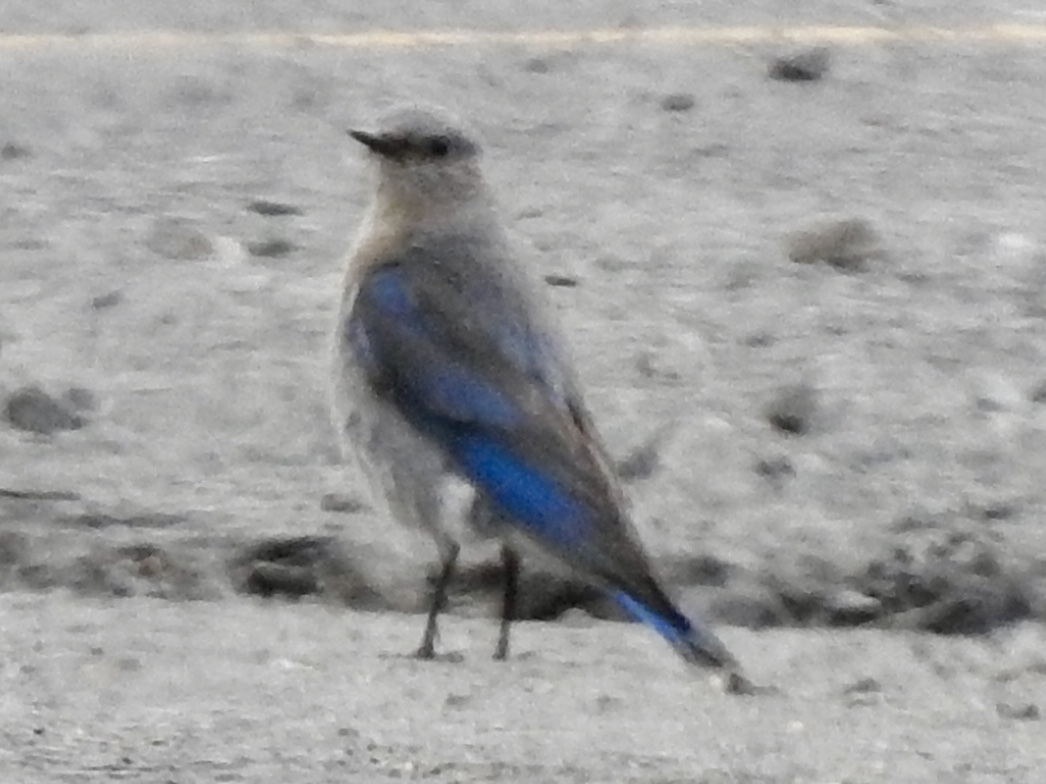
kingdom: Animalia
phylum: Chordata
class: Aves
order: Passeriformes
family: Turdidae
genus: Sialia
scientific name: Sialia currucoides
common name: Mountain bluebird
